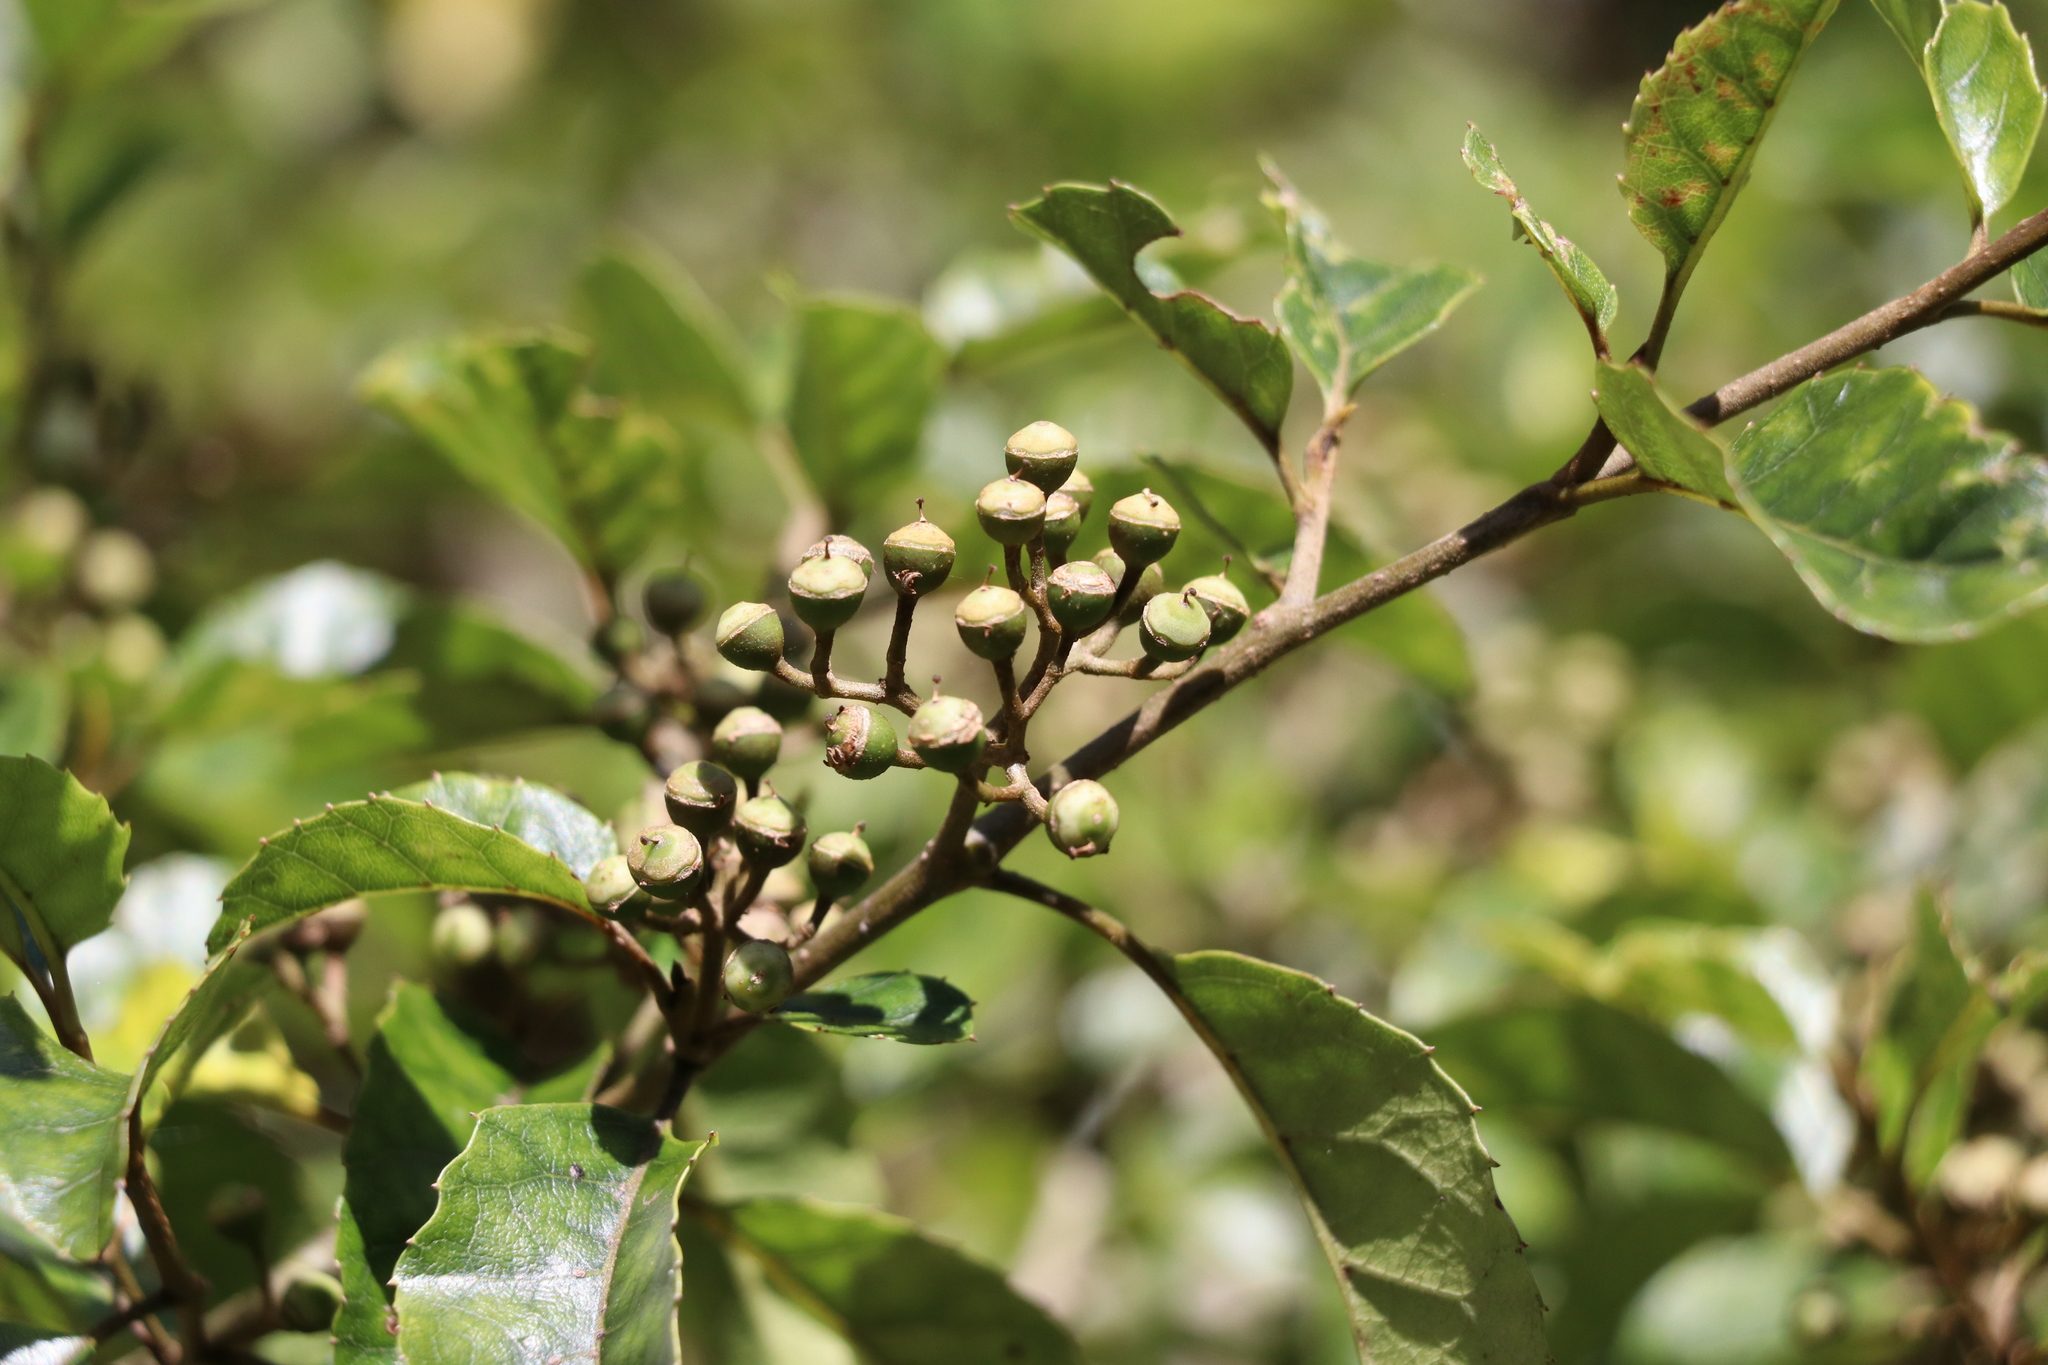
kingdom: Plantae
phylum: Tracheophyta
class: Magnoliopsida
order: Asterales
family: Rousseaceae
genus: Carpodetus
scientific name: Carpodetus serratus
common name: White mapau
